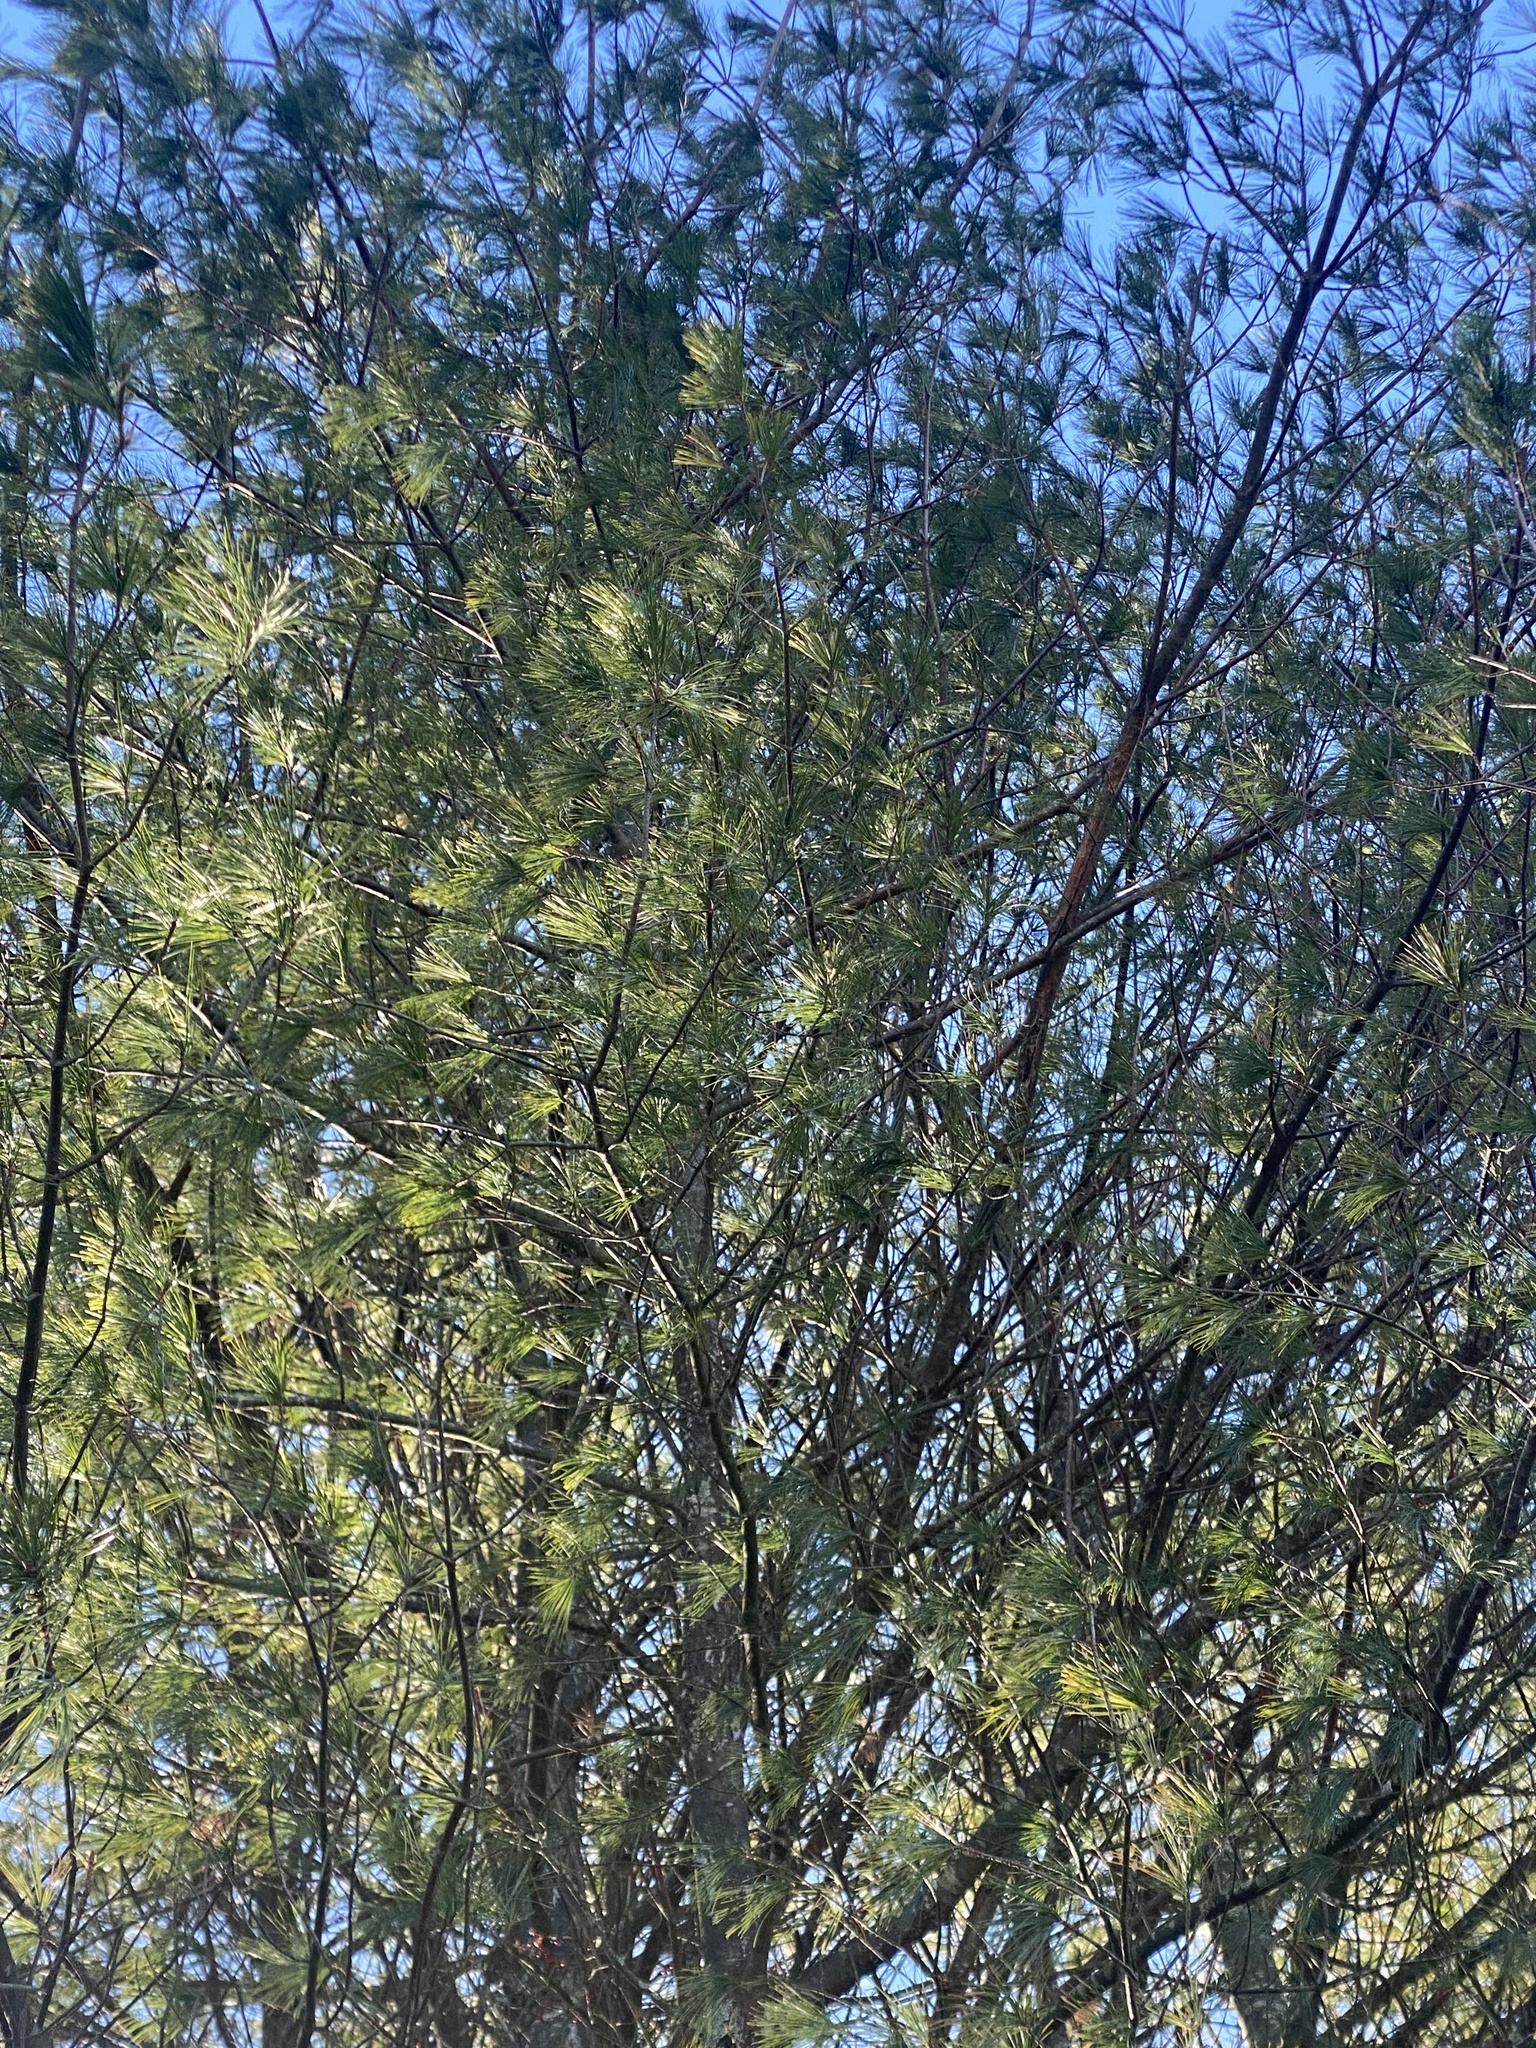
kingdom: Plantae
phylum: Tracheophyta
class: Pinopsida
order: Pinales
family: Pinaceae
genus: Pinus
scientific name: Pinus strobus
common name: Weymouth pine
